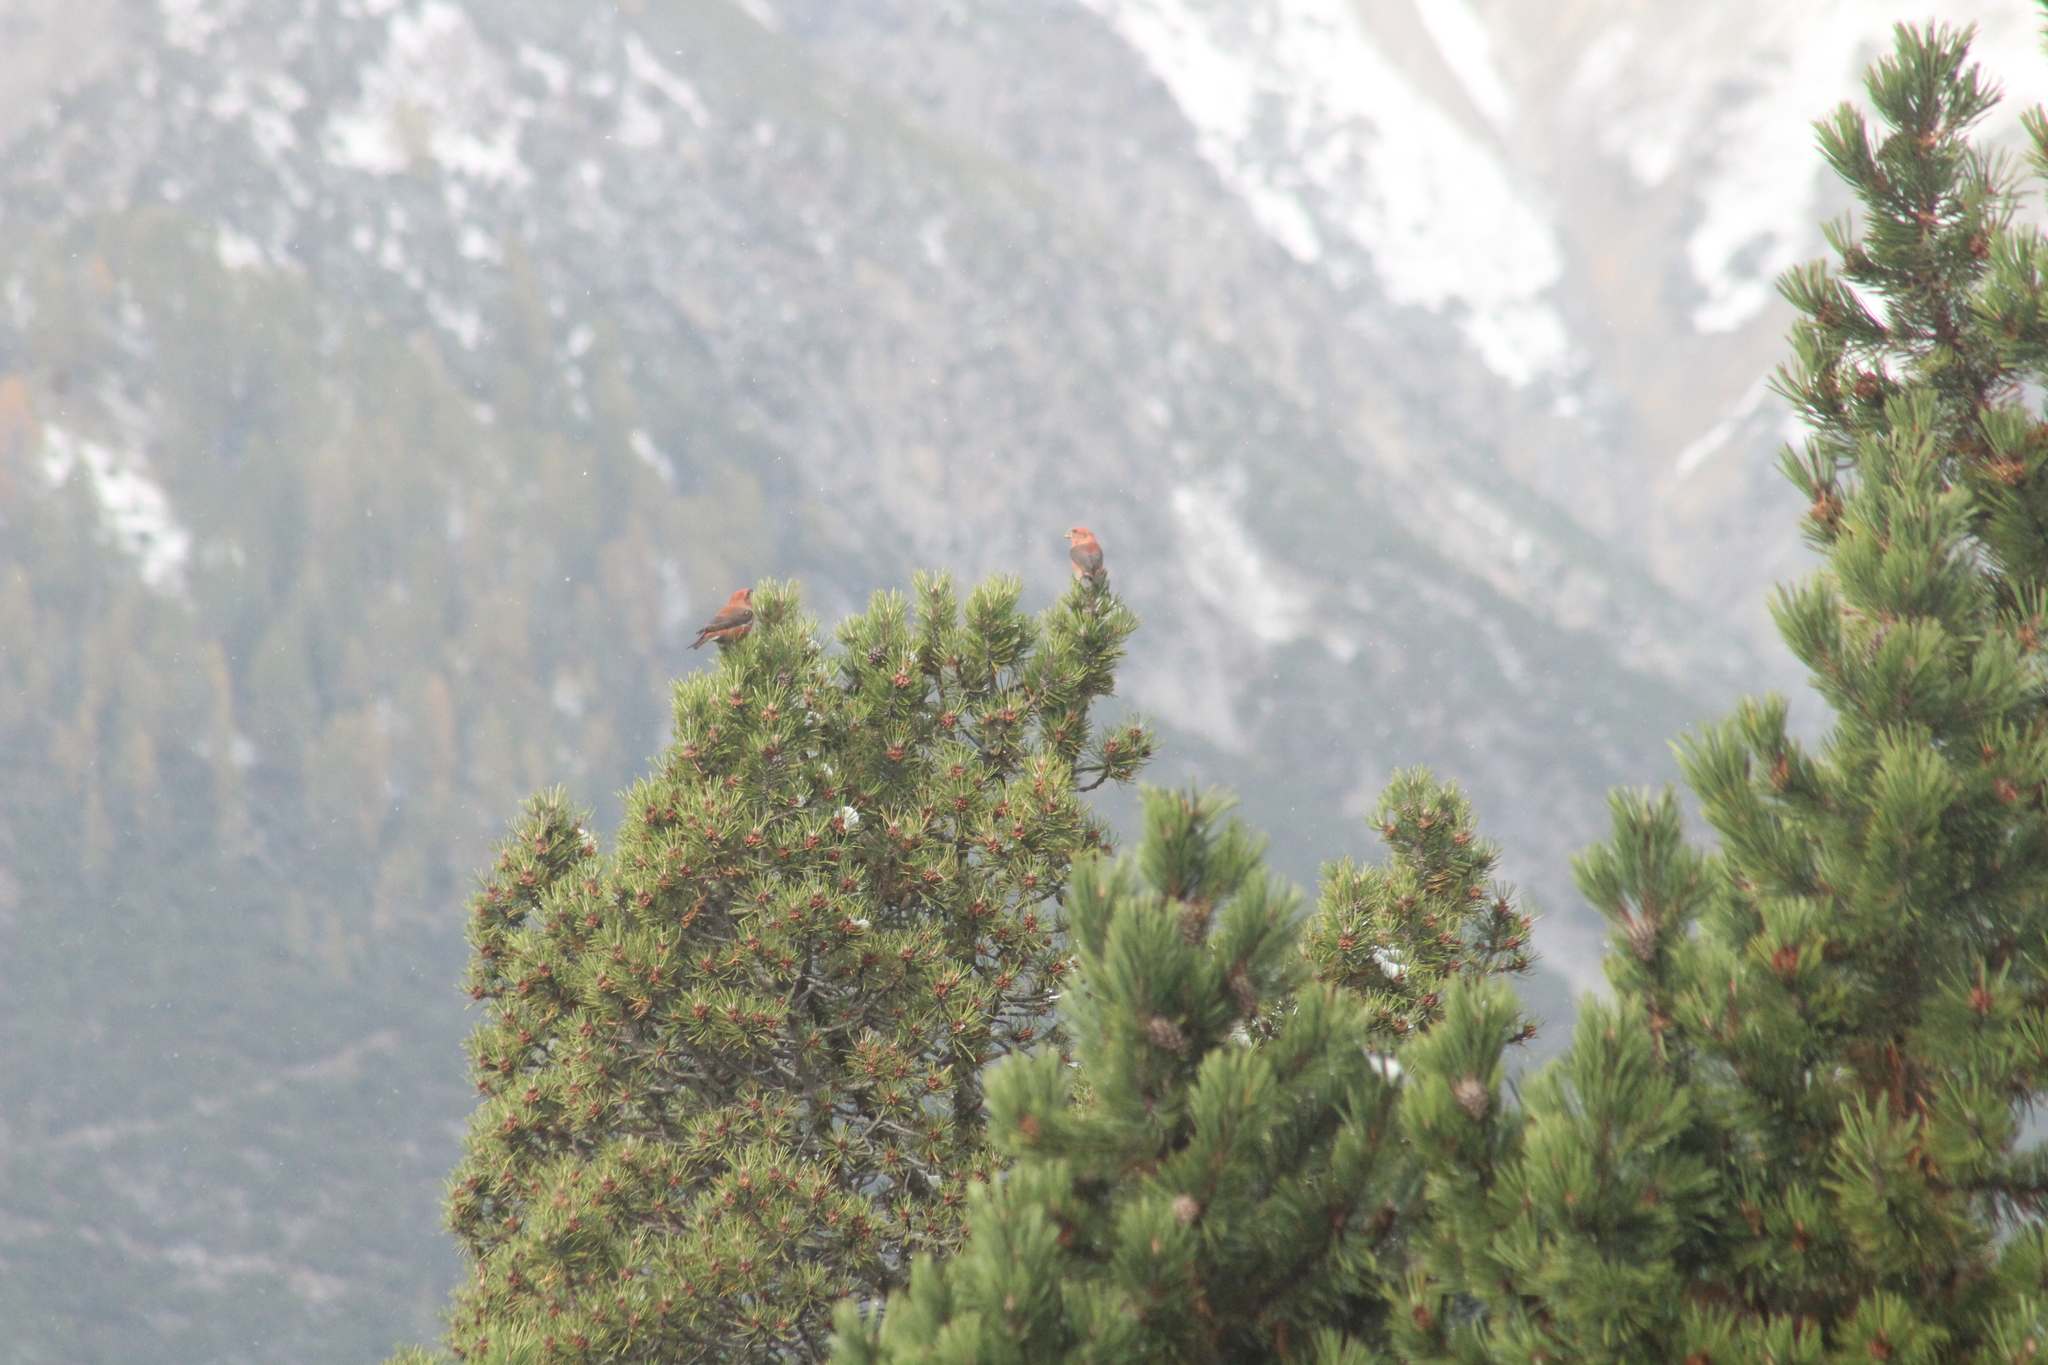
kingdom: Animalia
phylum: Chordata
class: Aves
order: Passeriformes
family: Fringillidae
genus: Loxia
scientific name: Loxia curvirostra
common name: Red crossbill
